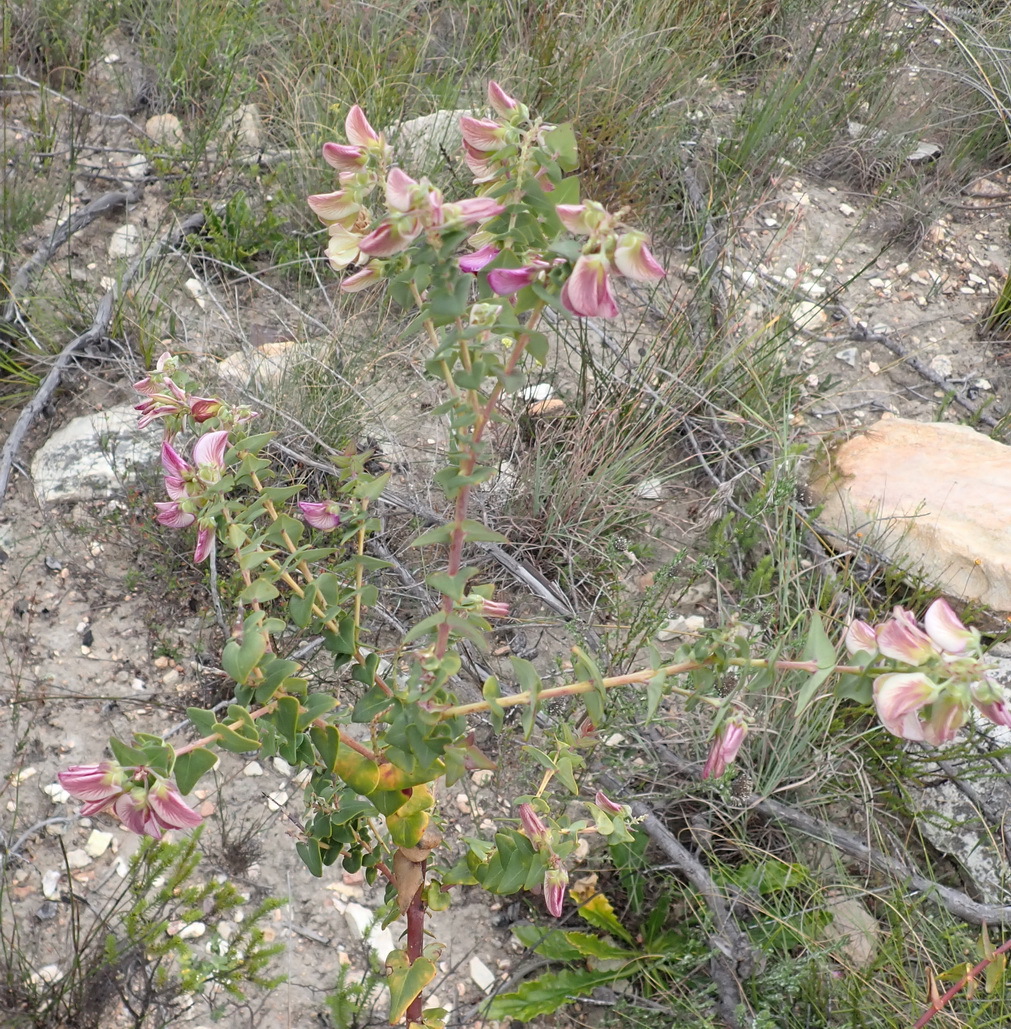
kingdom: Plantae
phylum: Tracheophyta
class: Magnoliopsida
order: Fabales
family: Polygalaceae
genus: Polygala
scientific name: Polygala fruticosa
